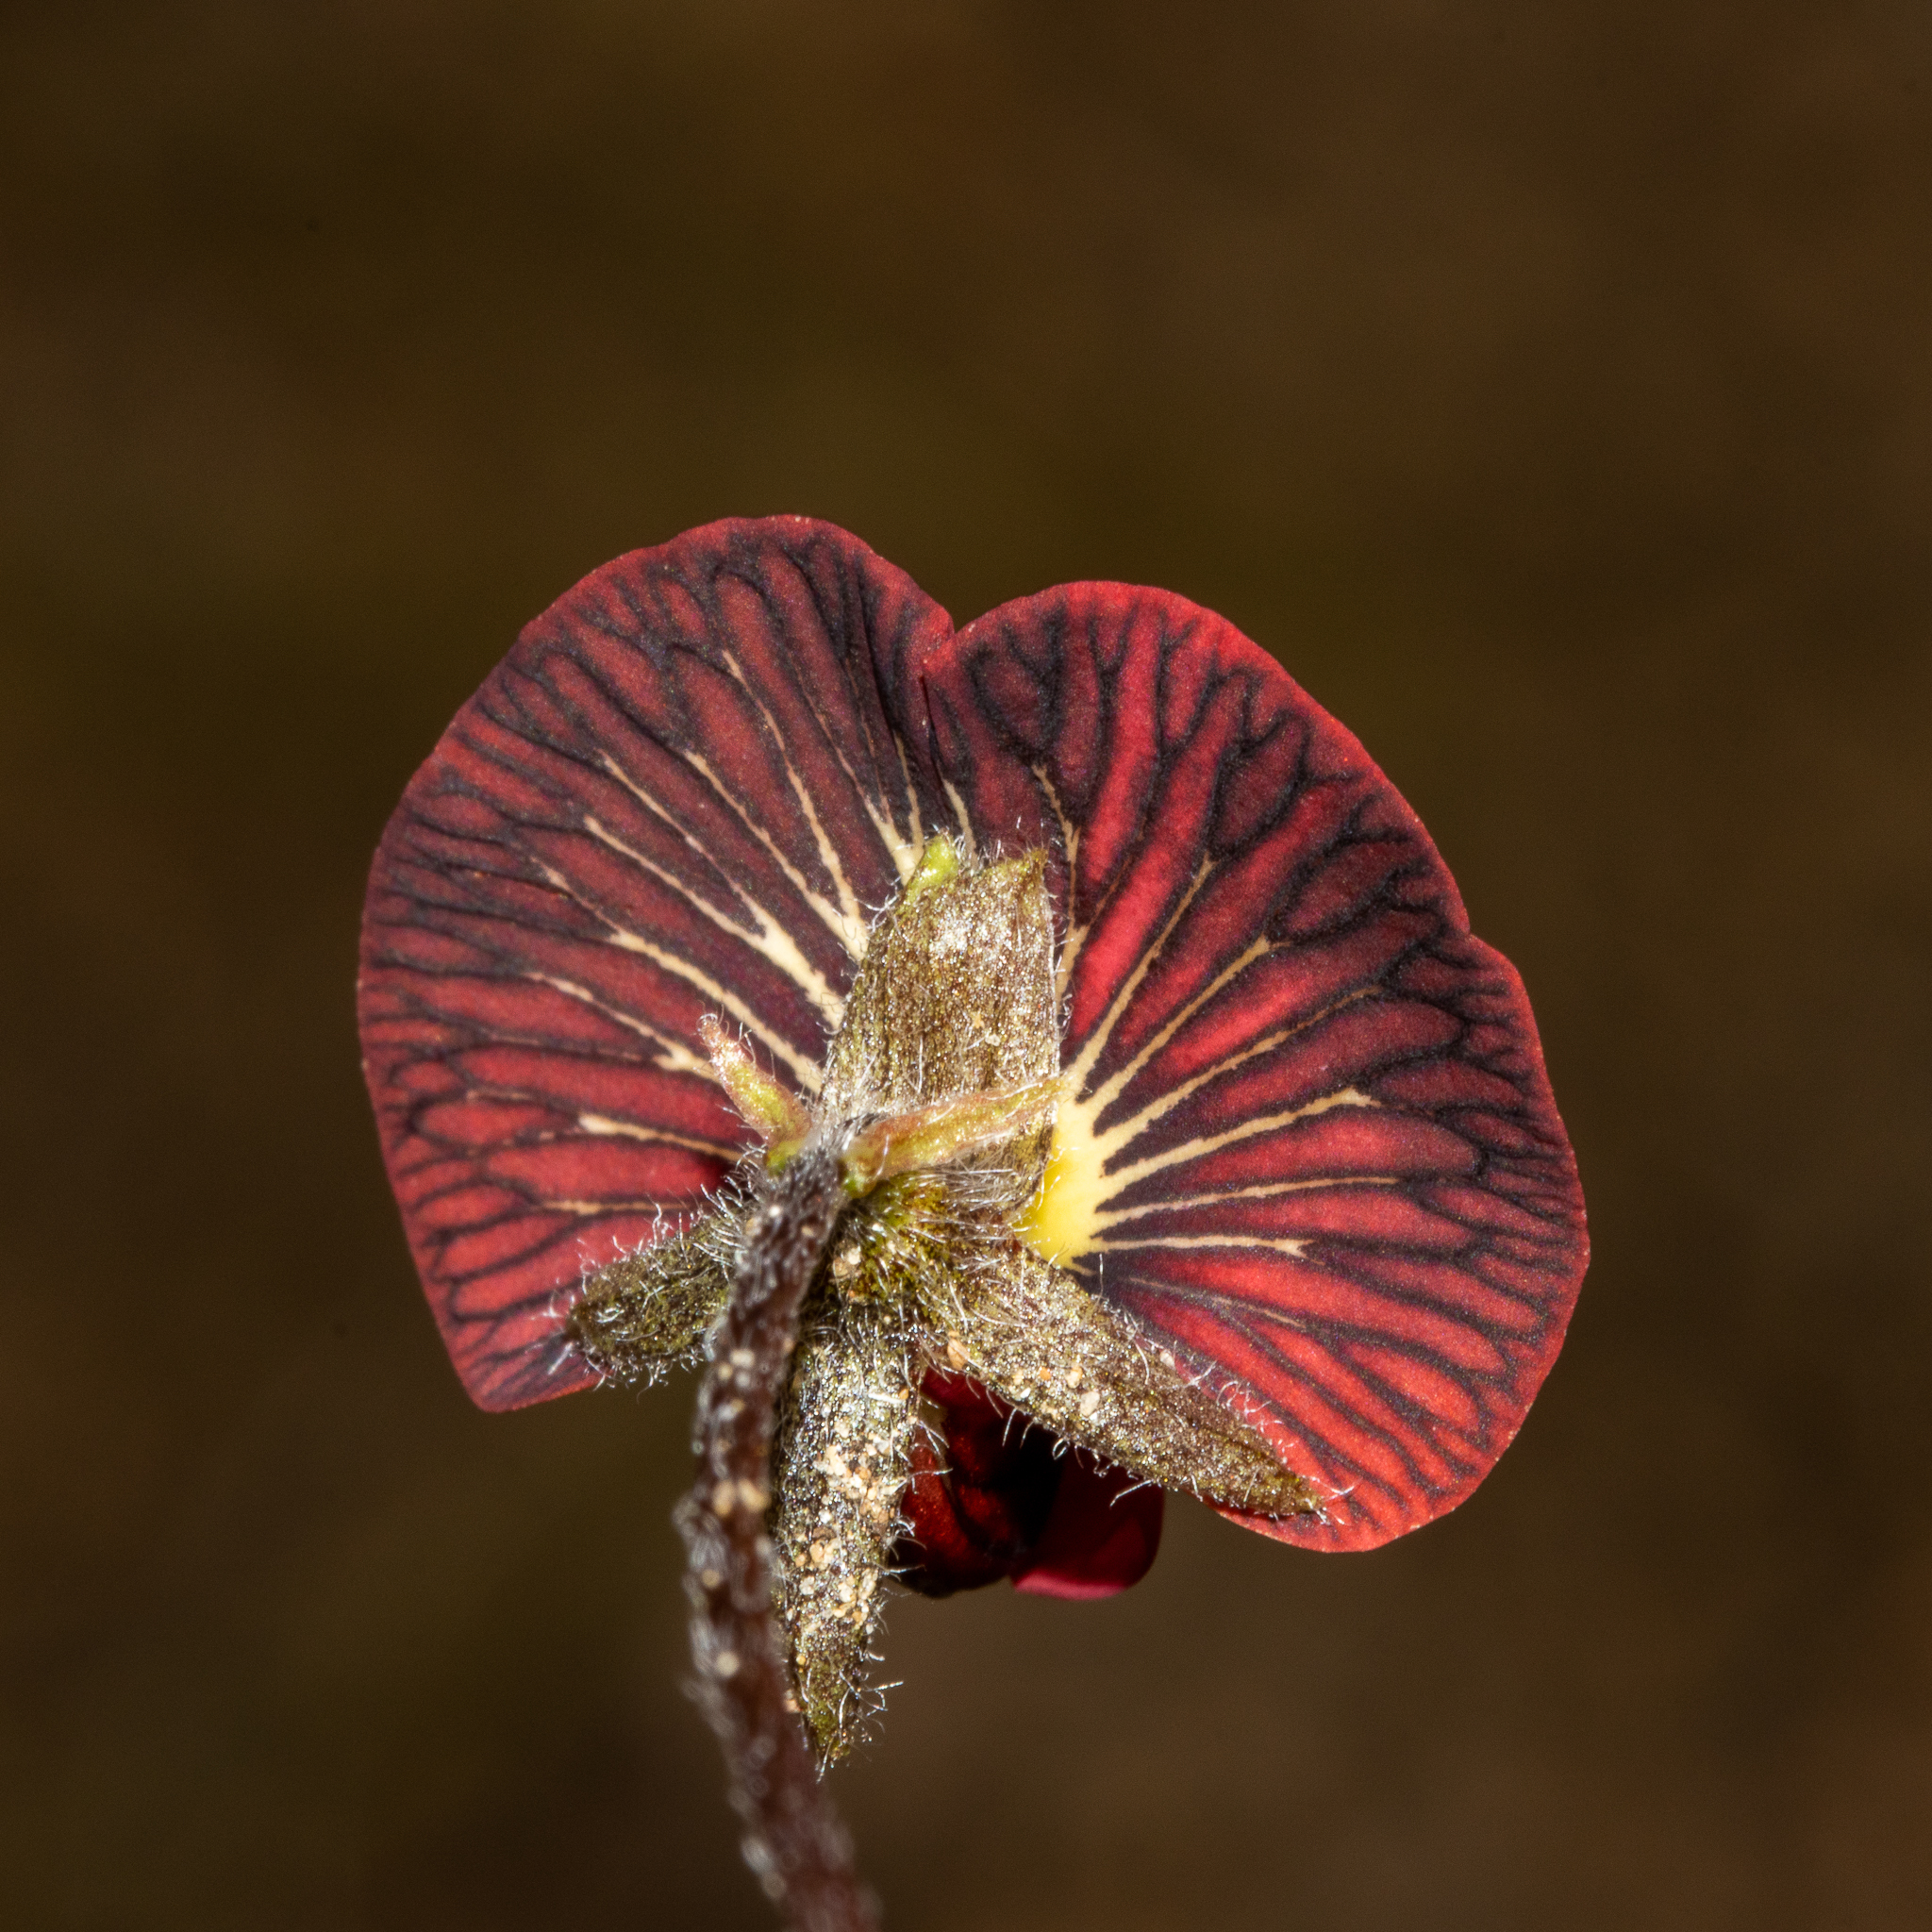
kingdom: Plantae
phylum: Tracheophyta
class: Magnoliopsida
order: Fabales
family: Fabaceae
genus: Isotropis
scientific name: Isotropis cuneifolia
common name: Granny bonnets
